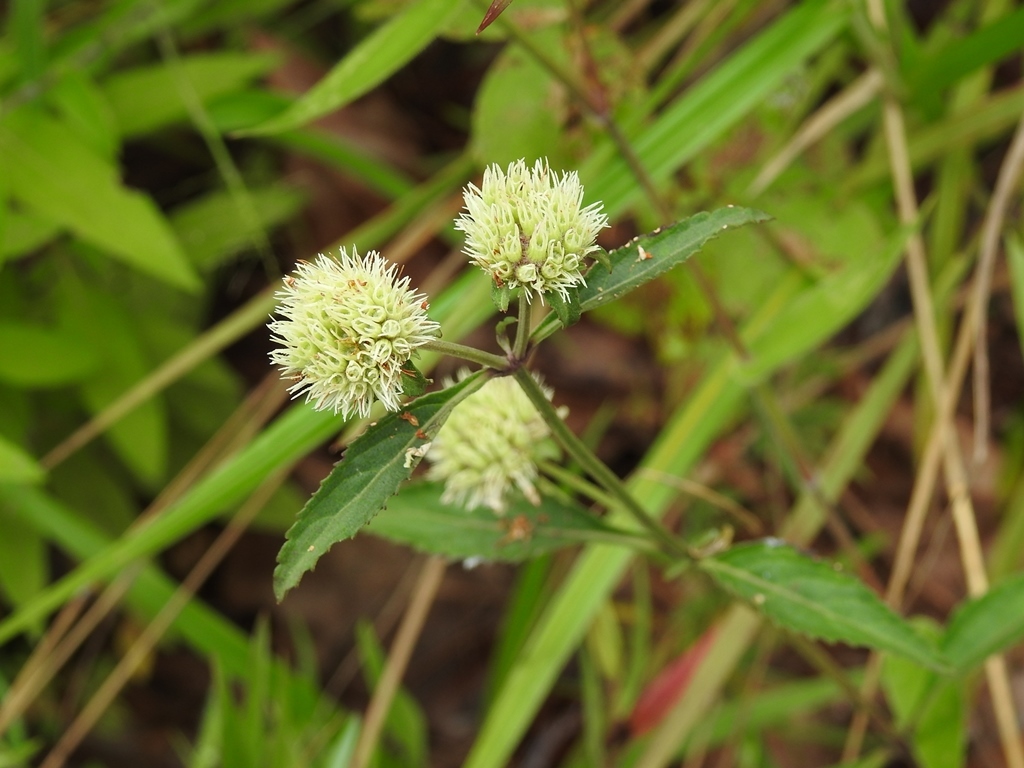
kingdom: Plantae
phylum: Tracheophyta
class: Magnoliopsida
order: Lamiales
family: Lamiaceae
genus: Hyptis
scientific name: Hyptis lantanifolia
